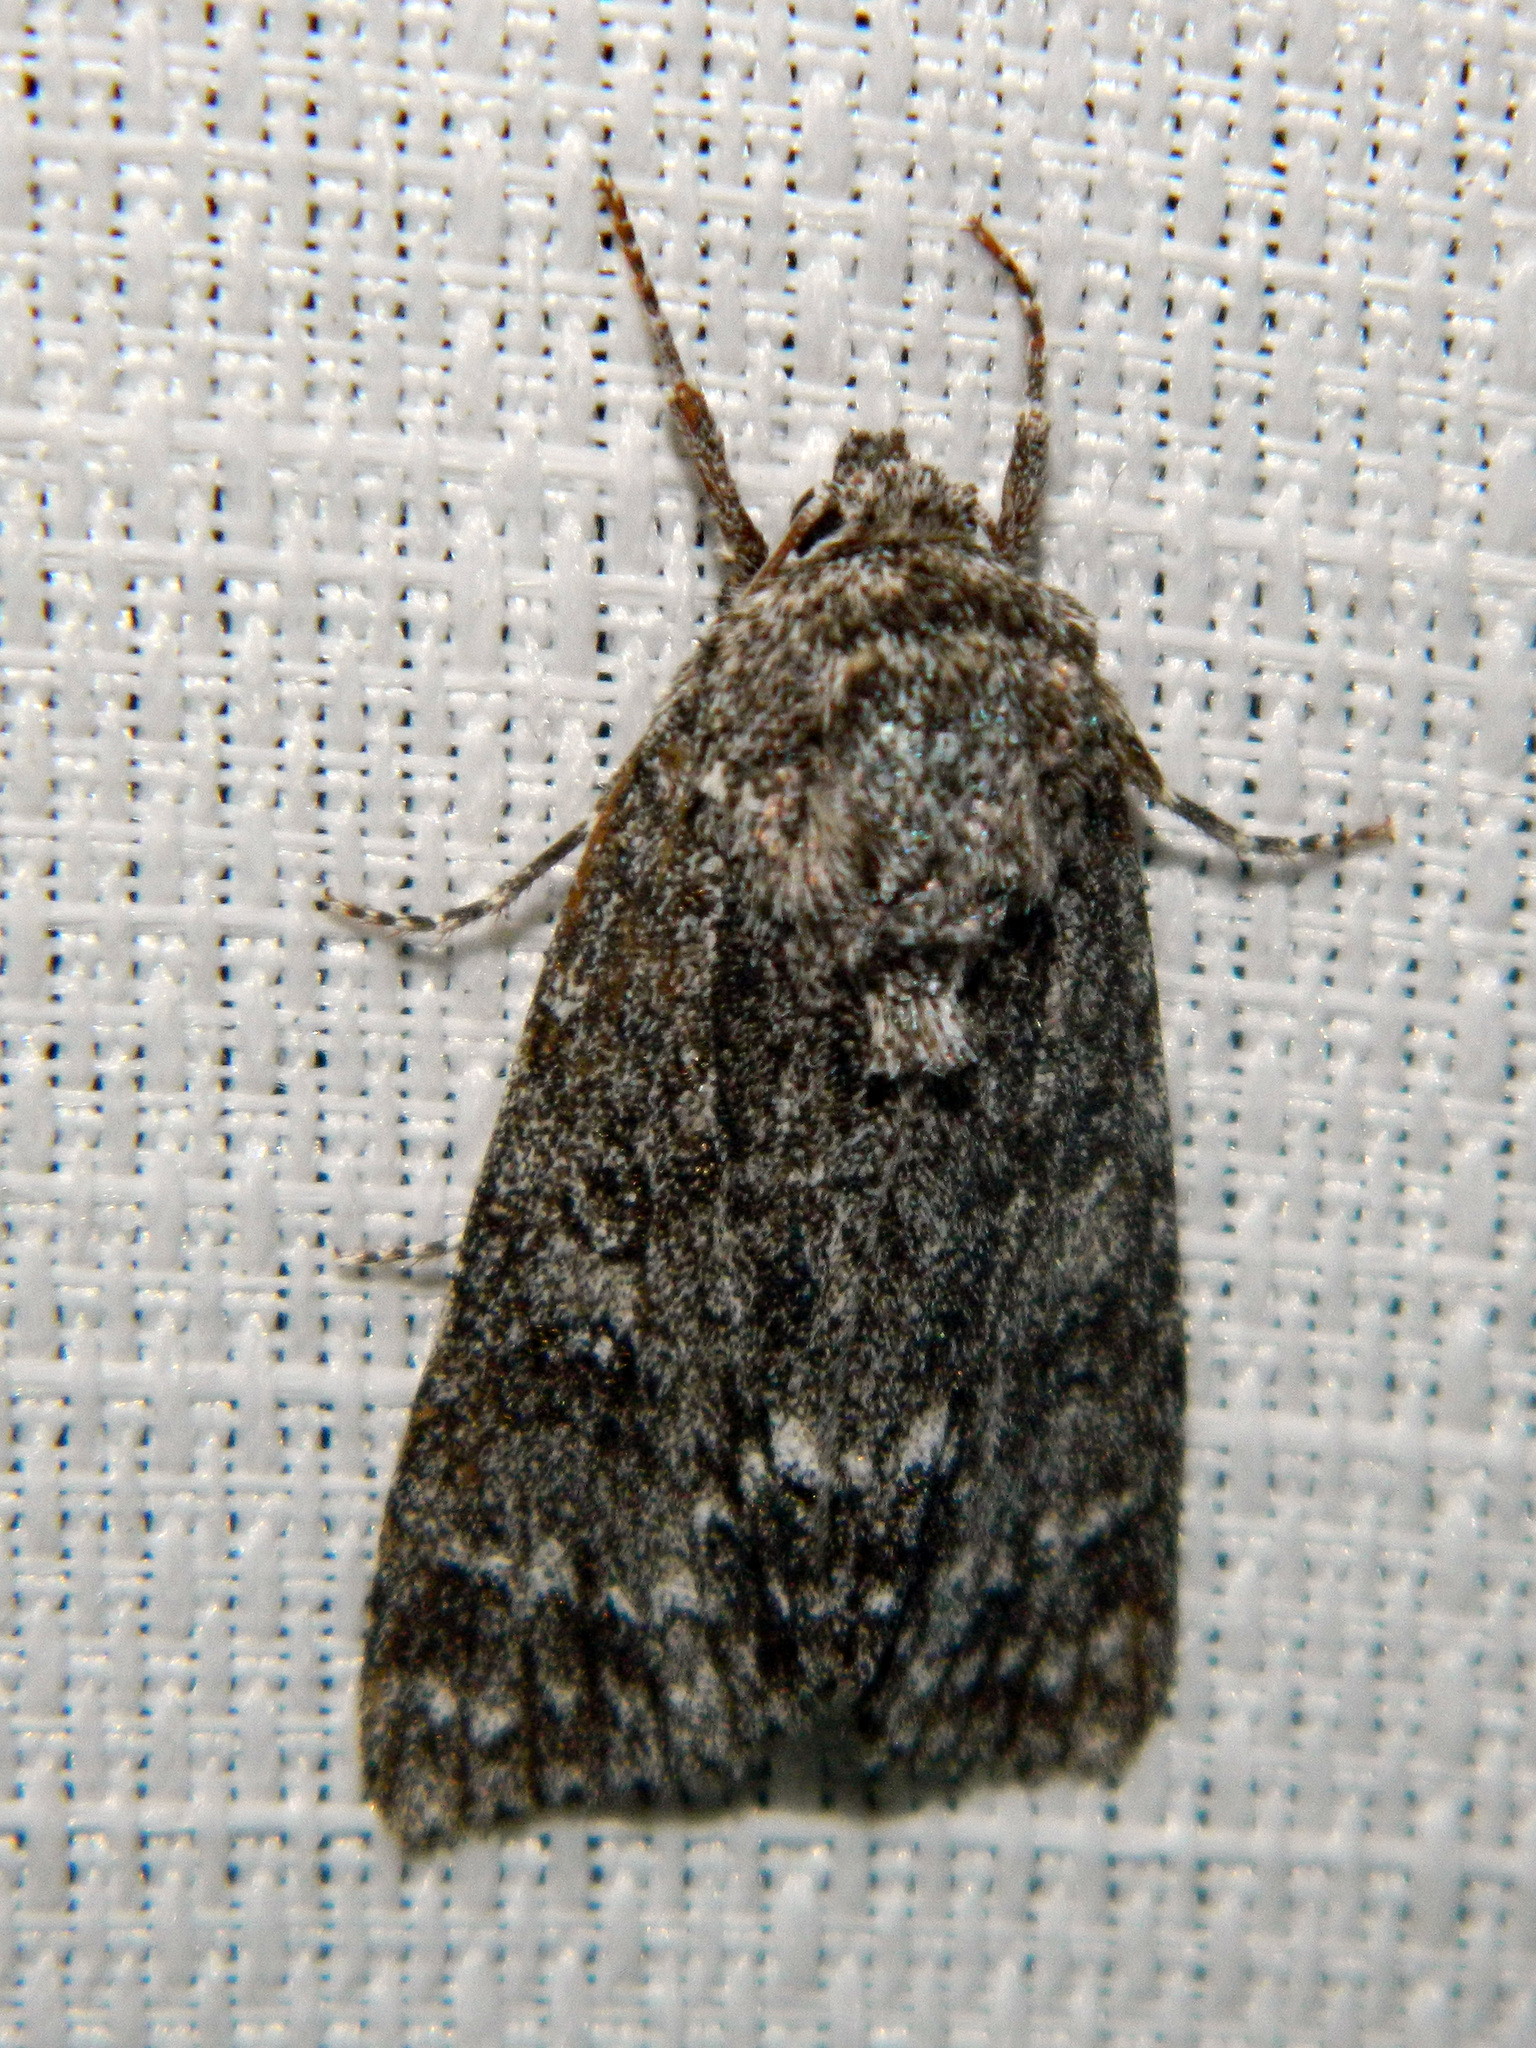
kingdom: Animalia
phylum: Arthropoda
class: Insecta
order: Lepidoptera
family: Noctuidae
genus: Acronicta
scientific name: Acronicta impleta
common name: Powdered dagger
